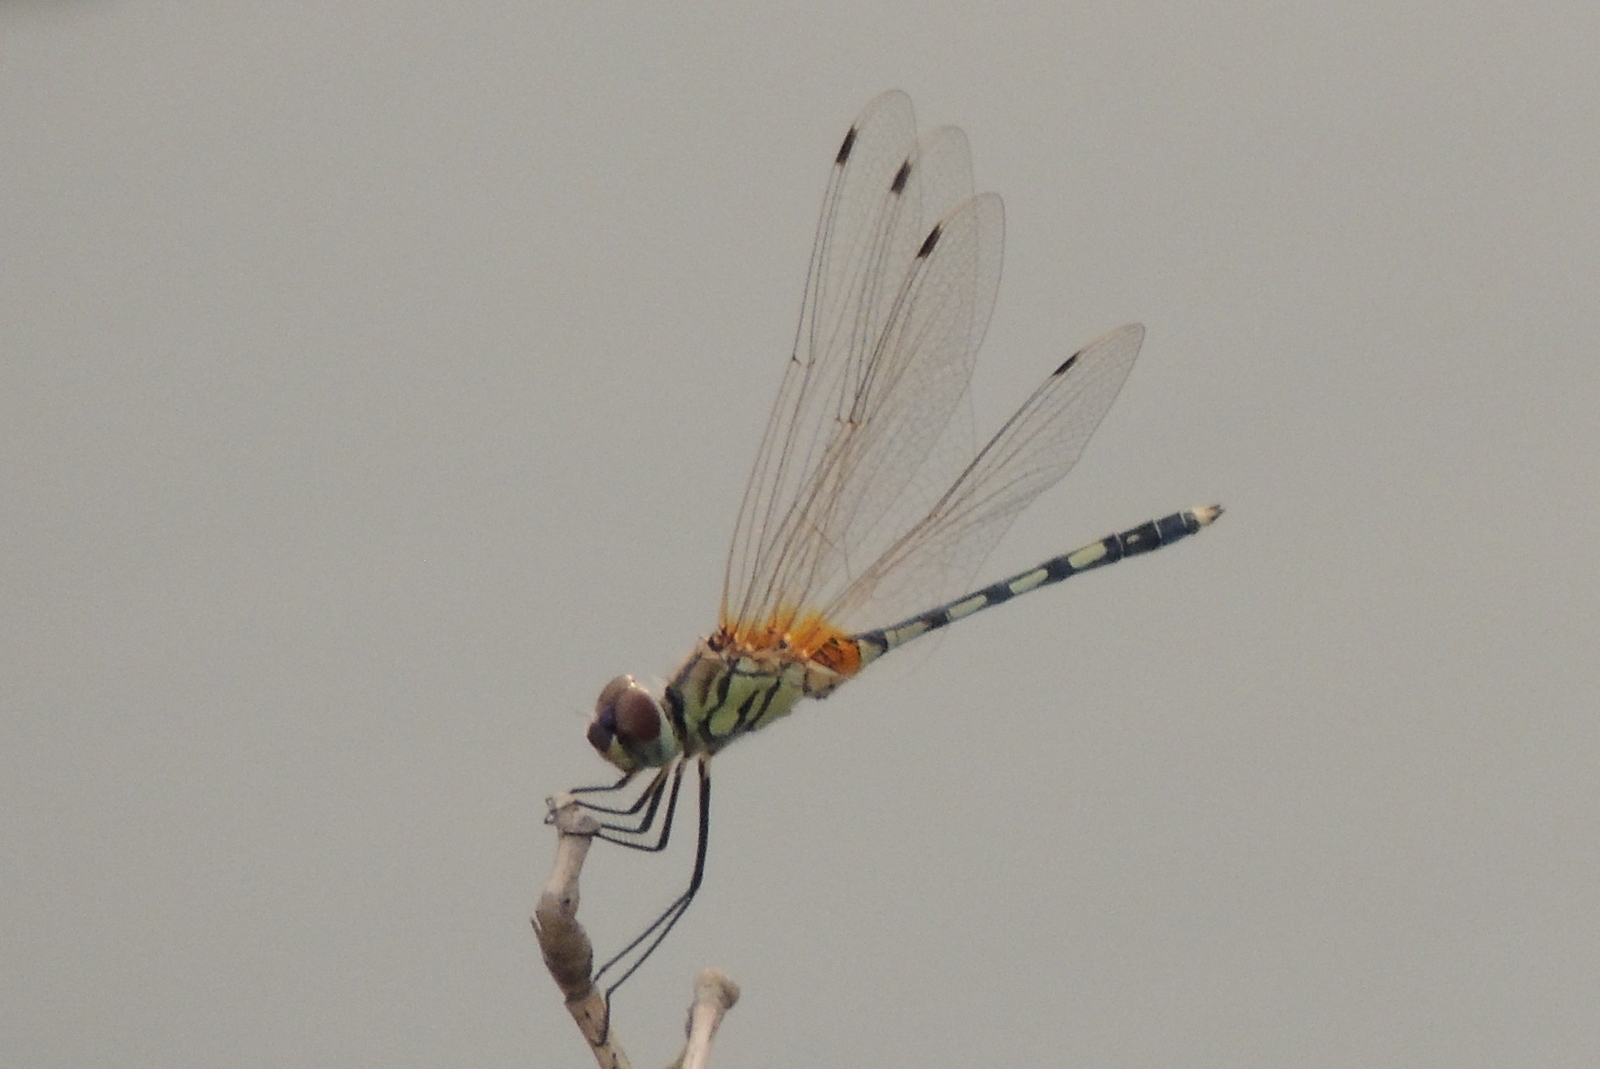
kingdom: Animalia
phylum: Arthropoda
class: Insecta
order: Odonata
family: Libellulidae
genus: Trithemis
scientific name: Trithemis pallidinervis
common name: Dancing dropwing
